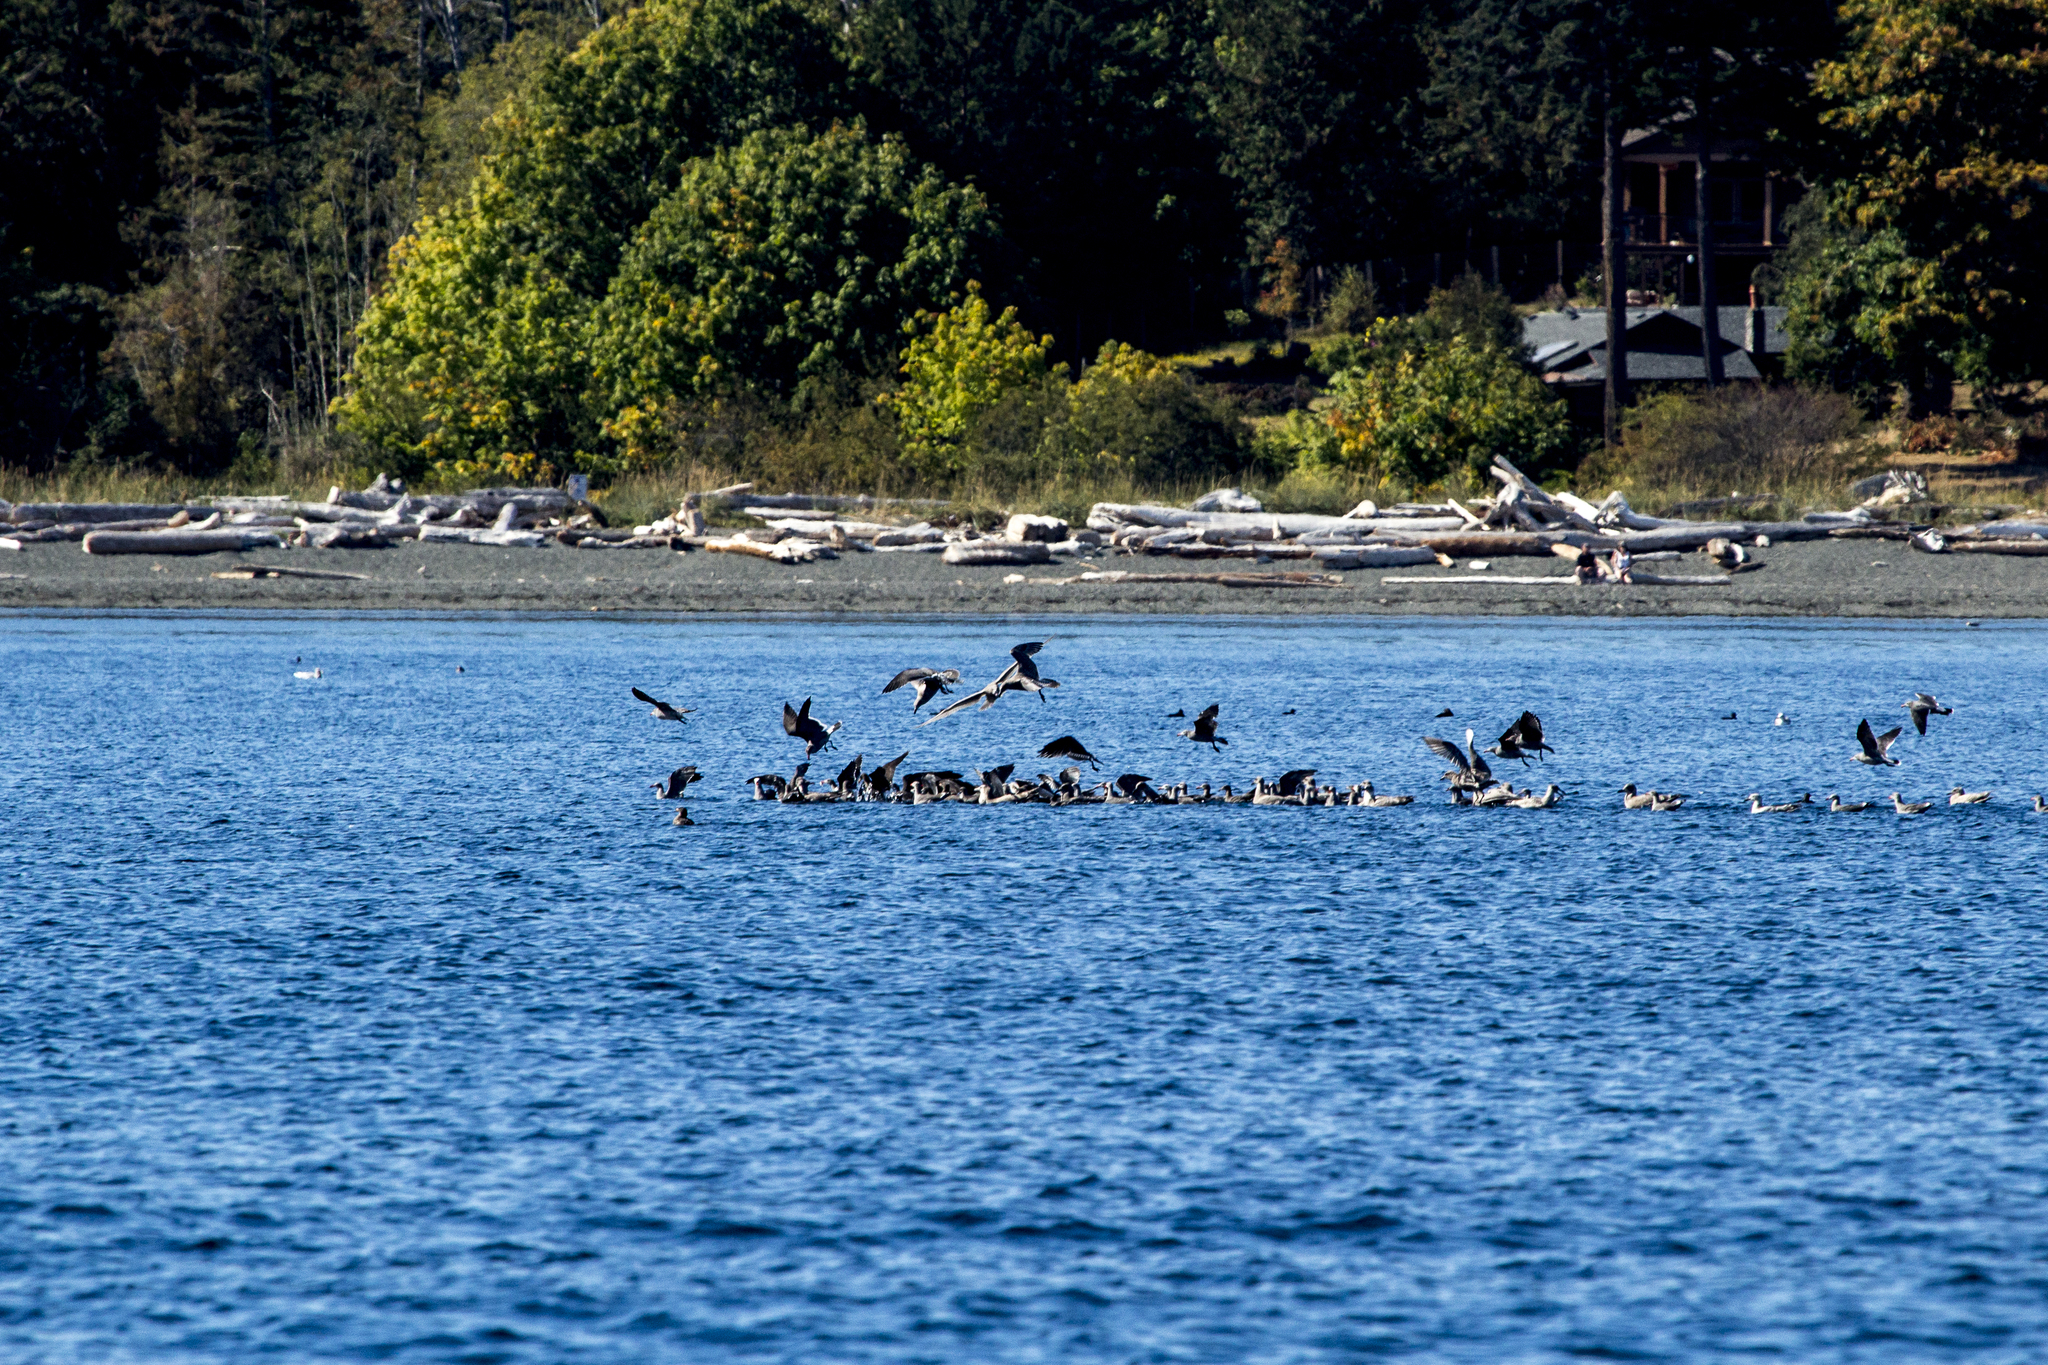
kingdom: Animalia
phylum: Chordata
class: Aves
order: Charadriiformes
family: Laridae
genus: Larus
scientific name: Larus heermanni
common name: Heermann's gull
